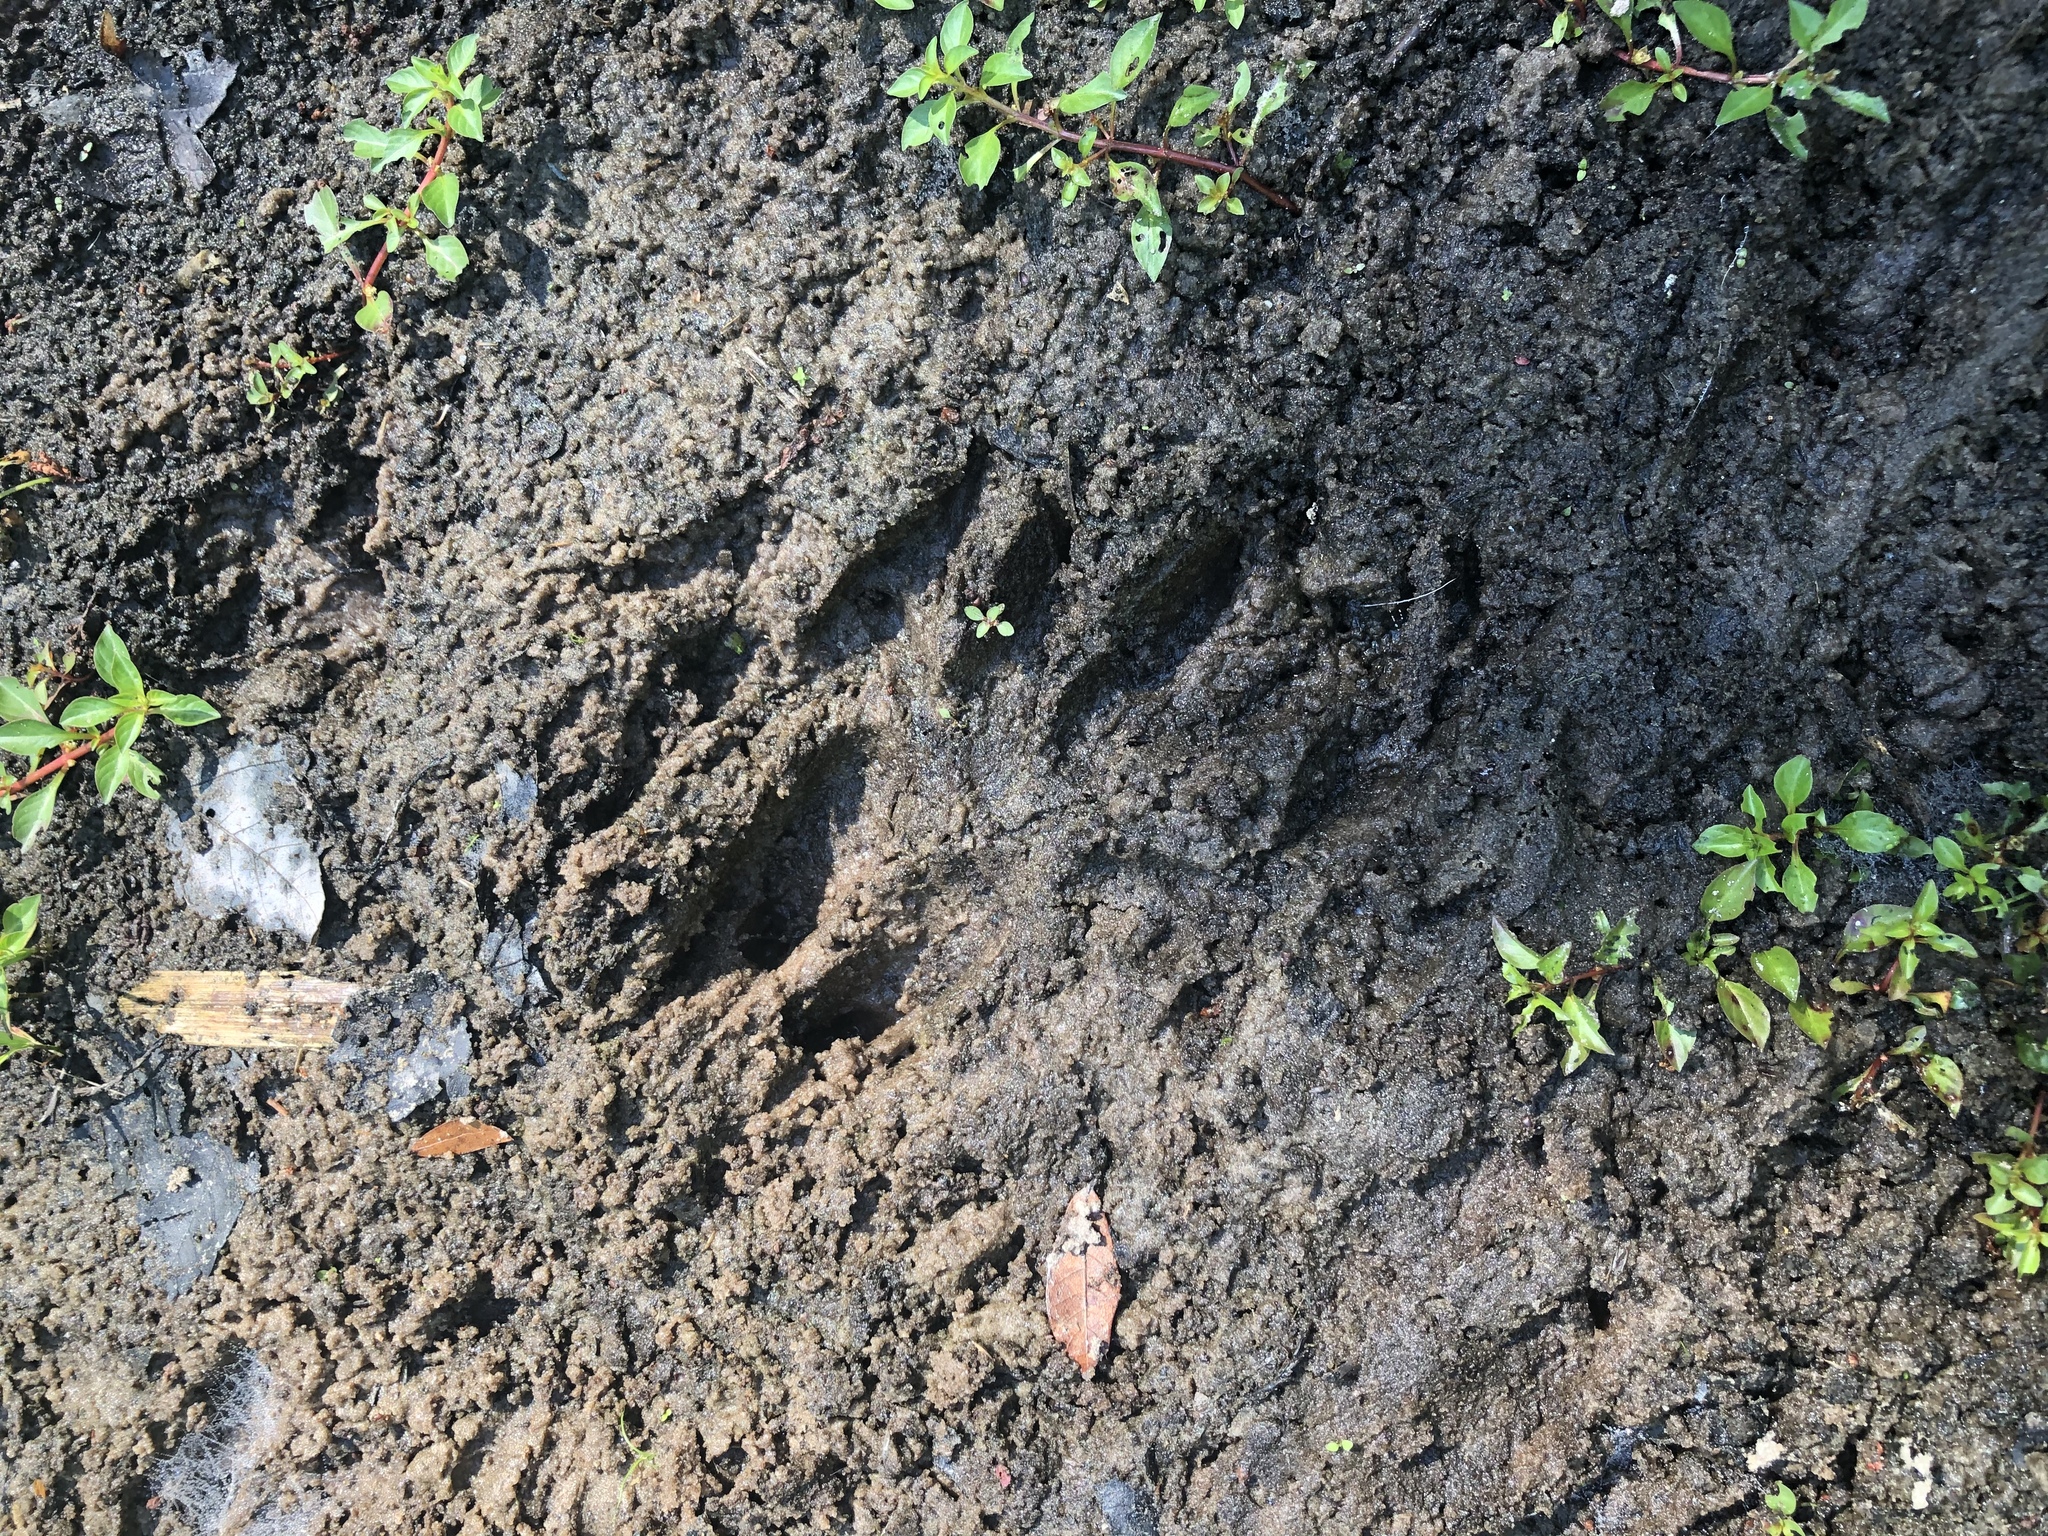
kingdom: Animalia
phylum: Chordata
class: Mammalia
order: Artiodactyla
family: Cervidae
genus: Odocoileus
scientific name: Odocoileus virginianus
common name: White-tailed deer
